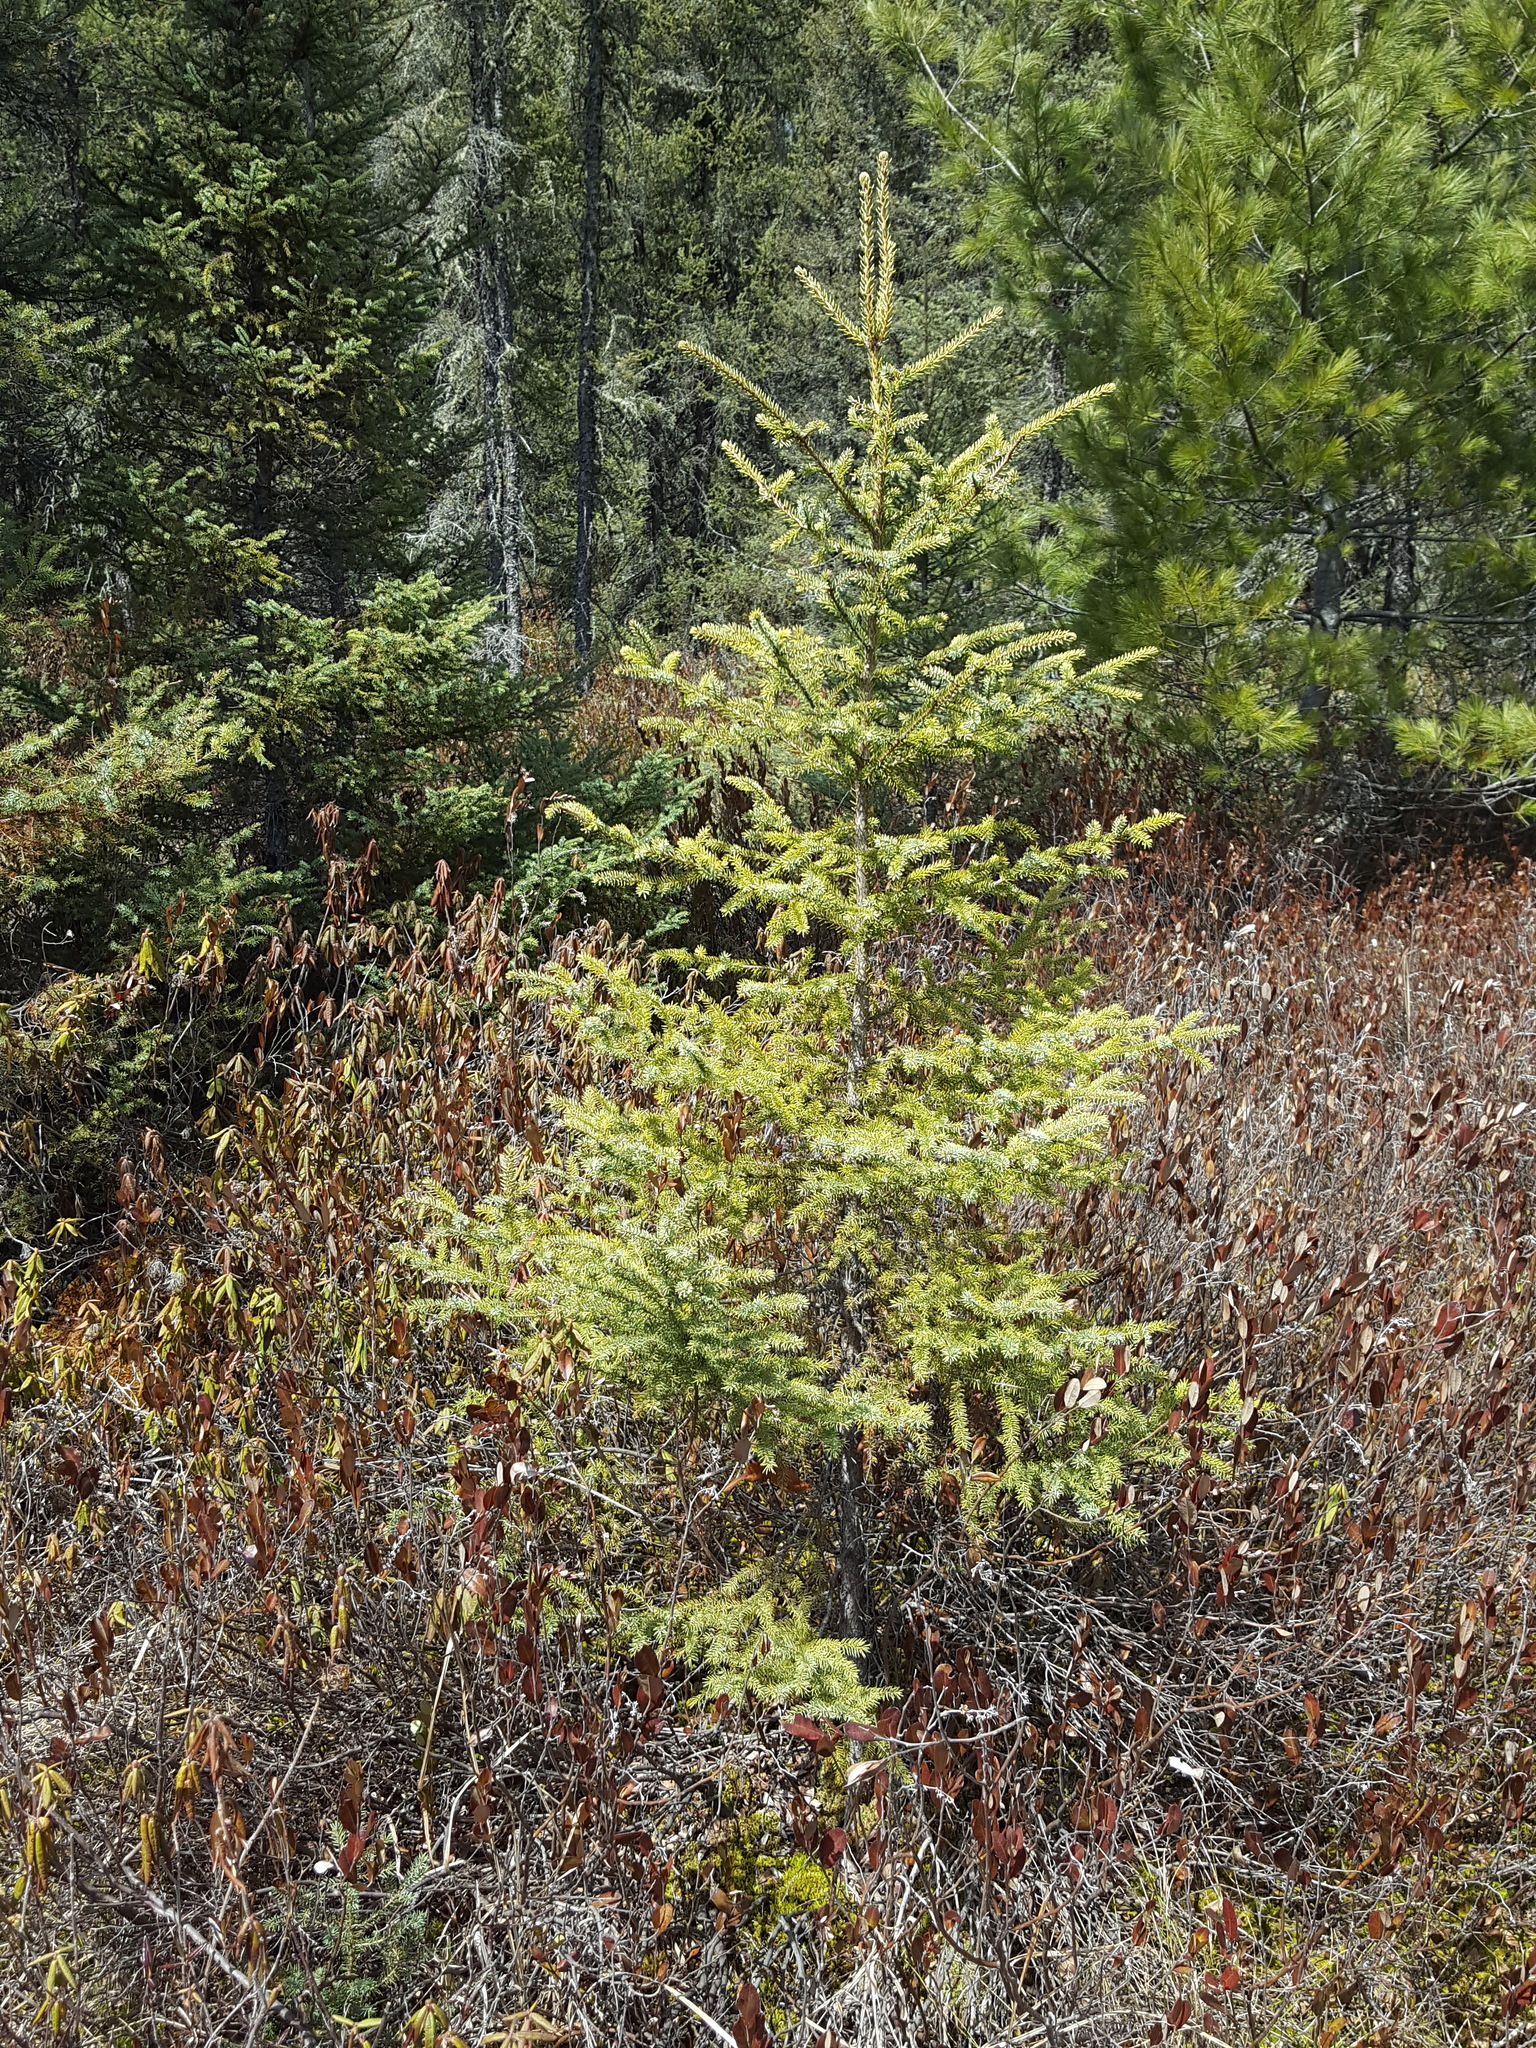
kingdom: Plantae
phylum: Tracheophyta
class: Pinopsida
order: Pinales
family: Pinaceae
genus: Picea
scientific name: Picea mariana
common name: Black spruce
